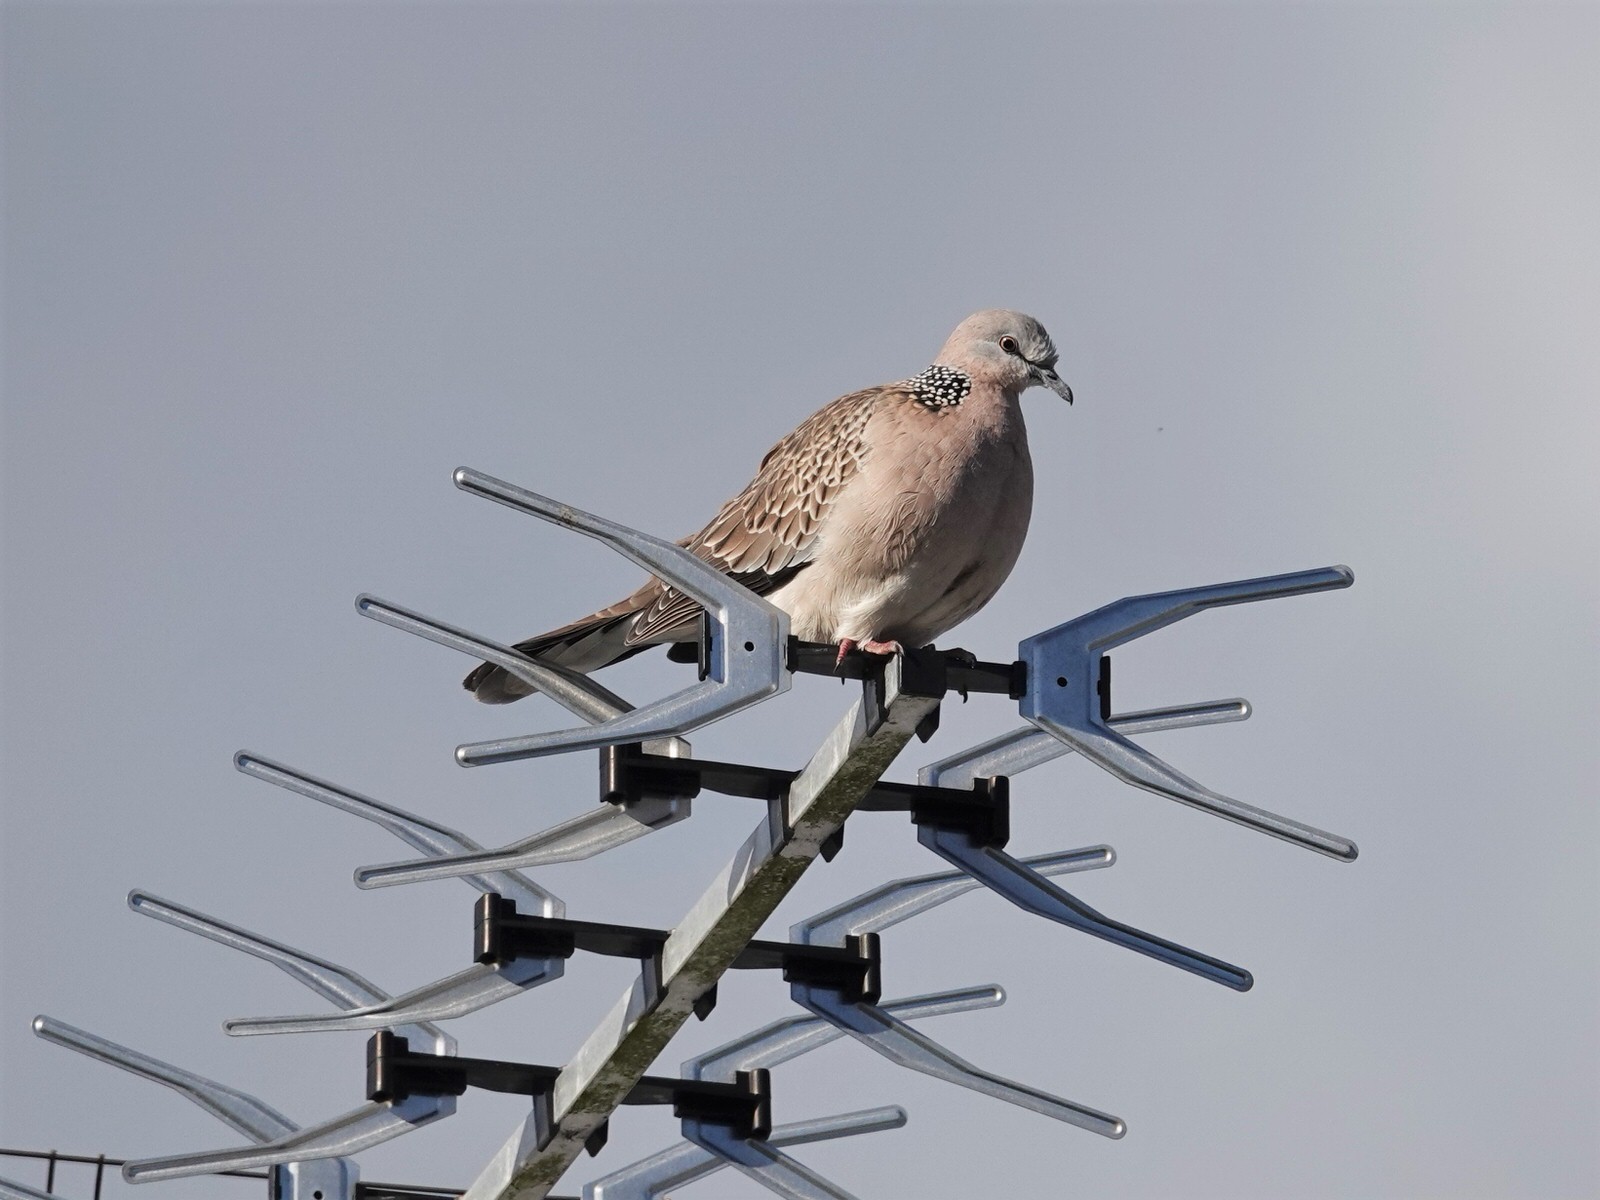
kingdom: Animalia
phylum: Chordata
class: Aves
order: Columbiformes
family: Columbidae
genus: Spilopelia
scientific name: Spilopelia chinensis
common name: Spotted dove
